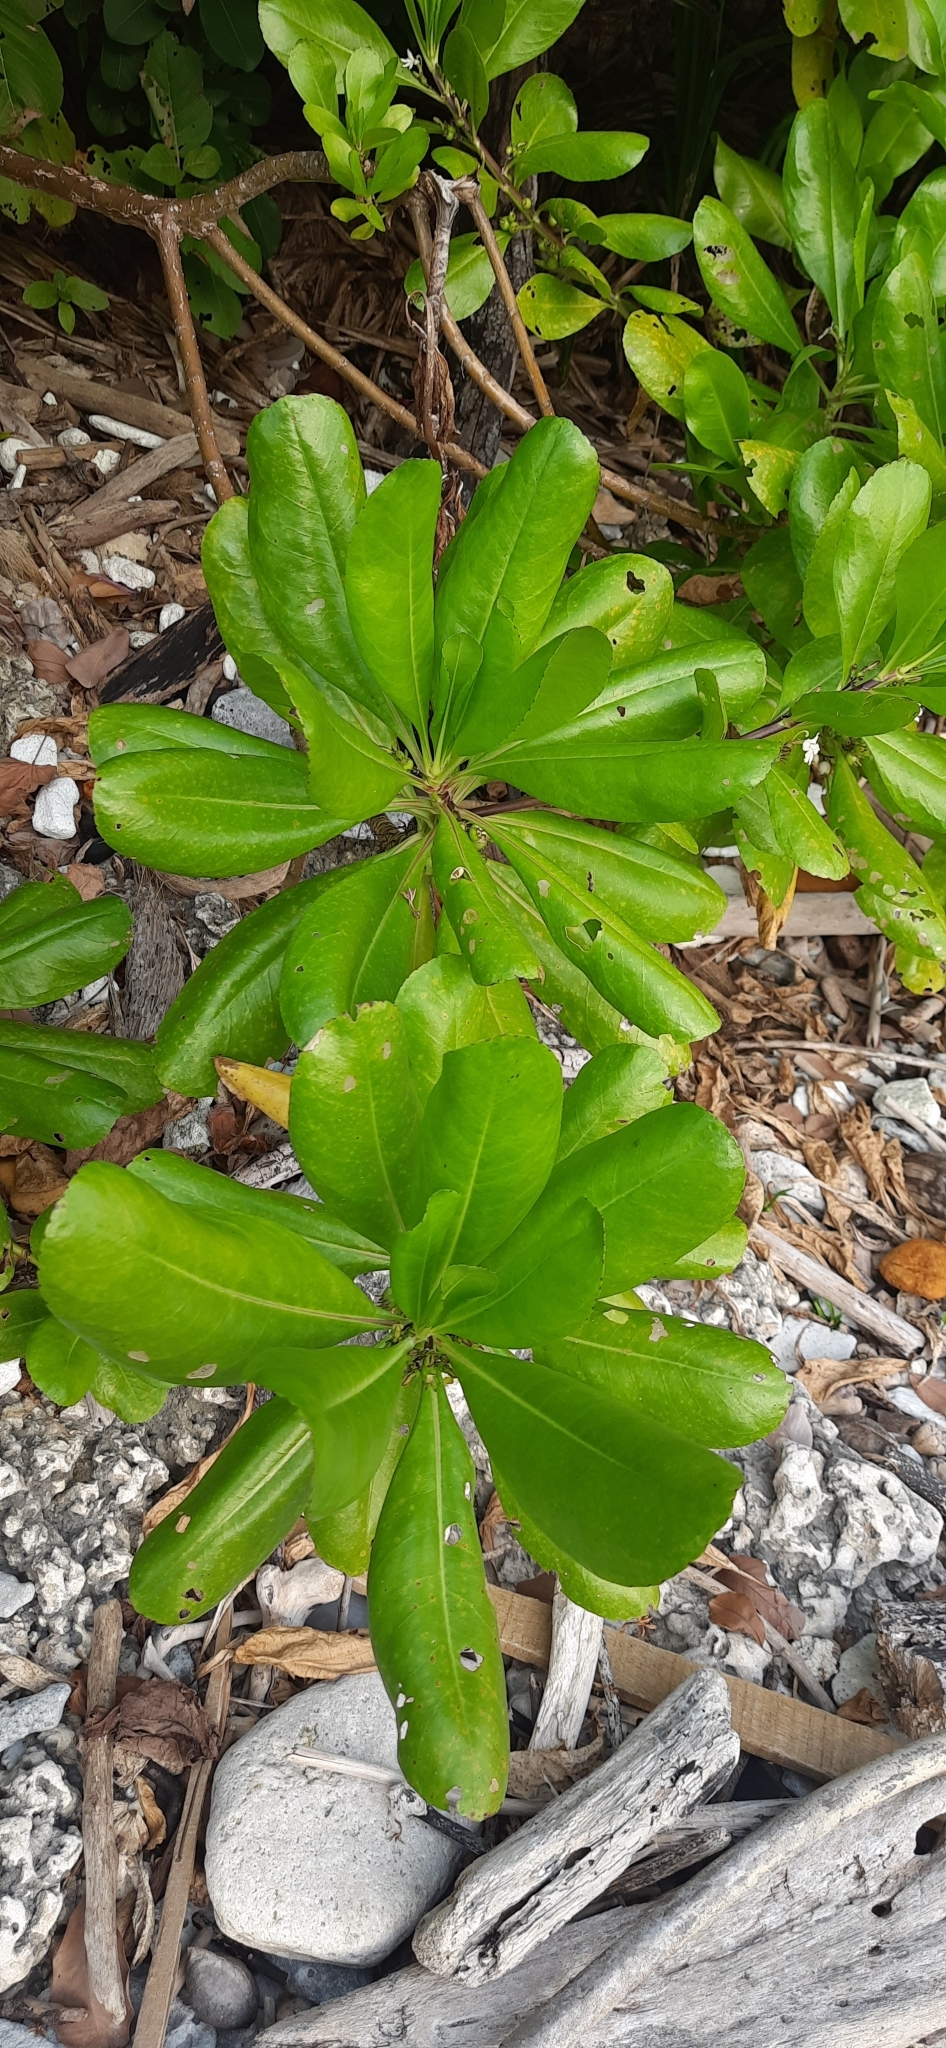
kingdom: Plantae
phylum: Tracheophyta
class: Magnoliopsida
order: Asterales
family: Goodeniaceae
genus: Scaevola
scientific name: Scaevola taccada
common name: Sea lettucetree
